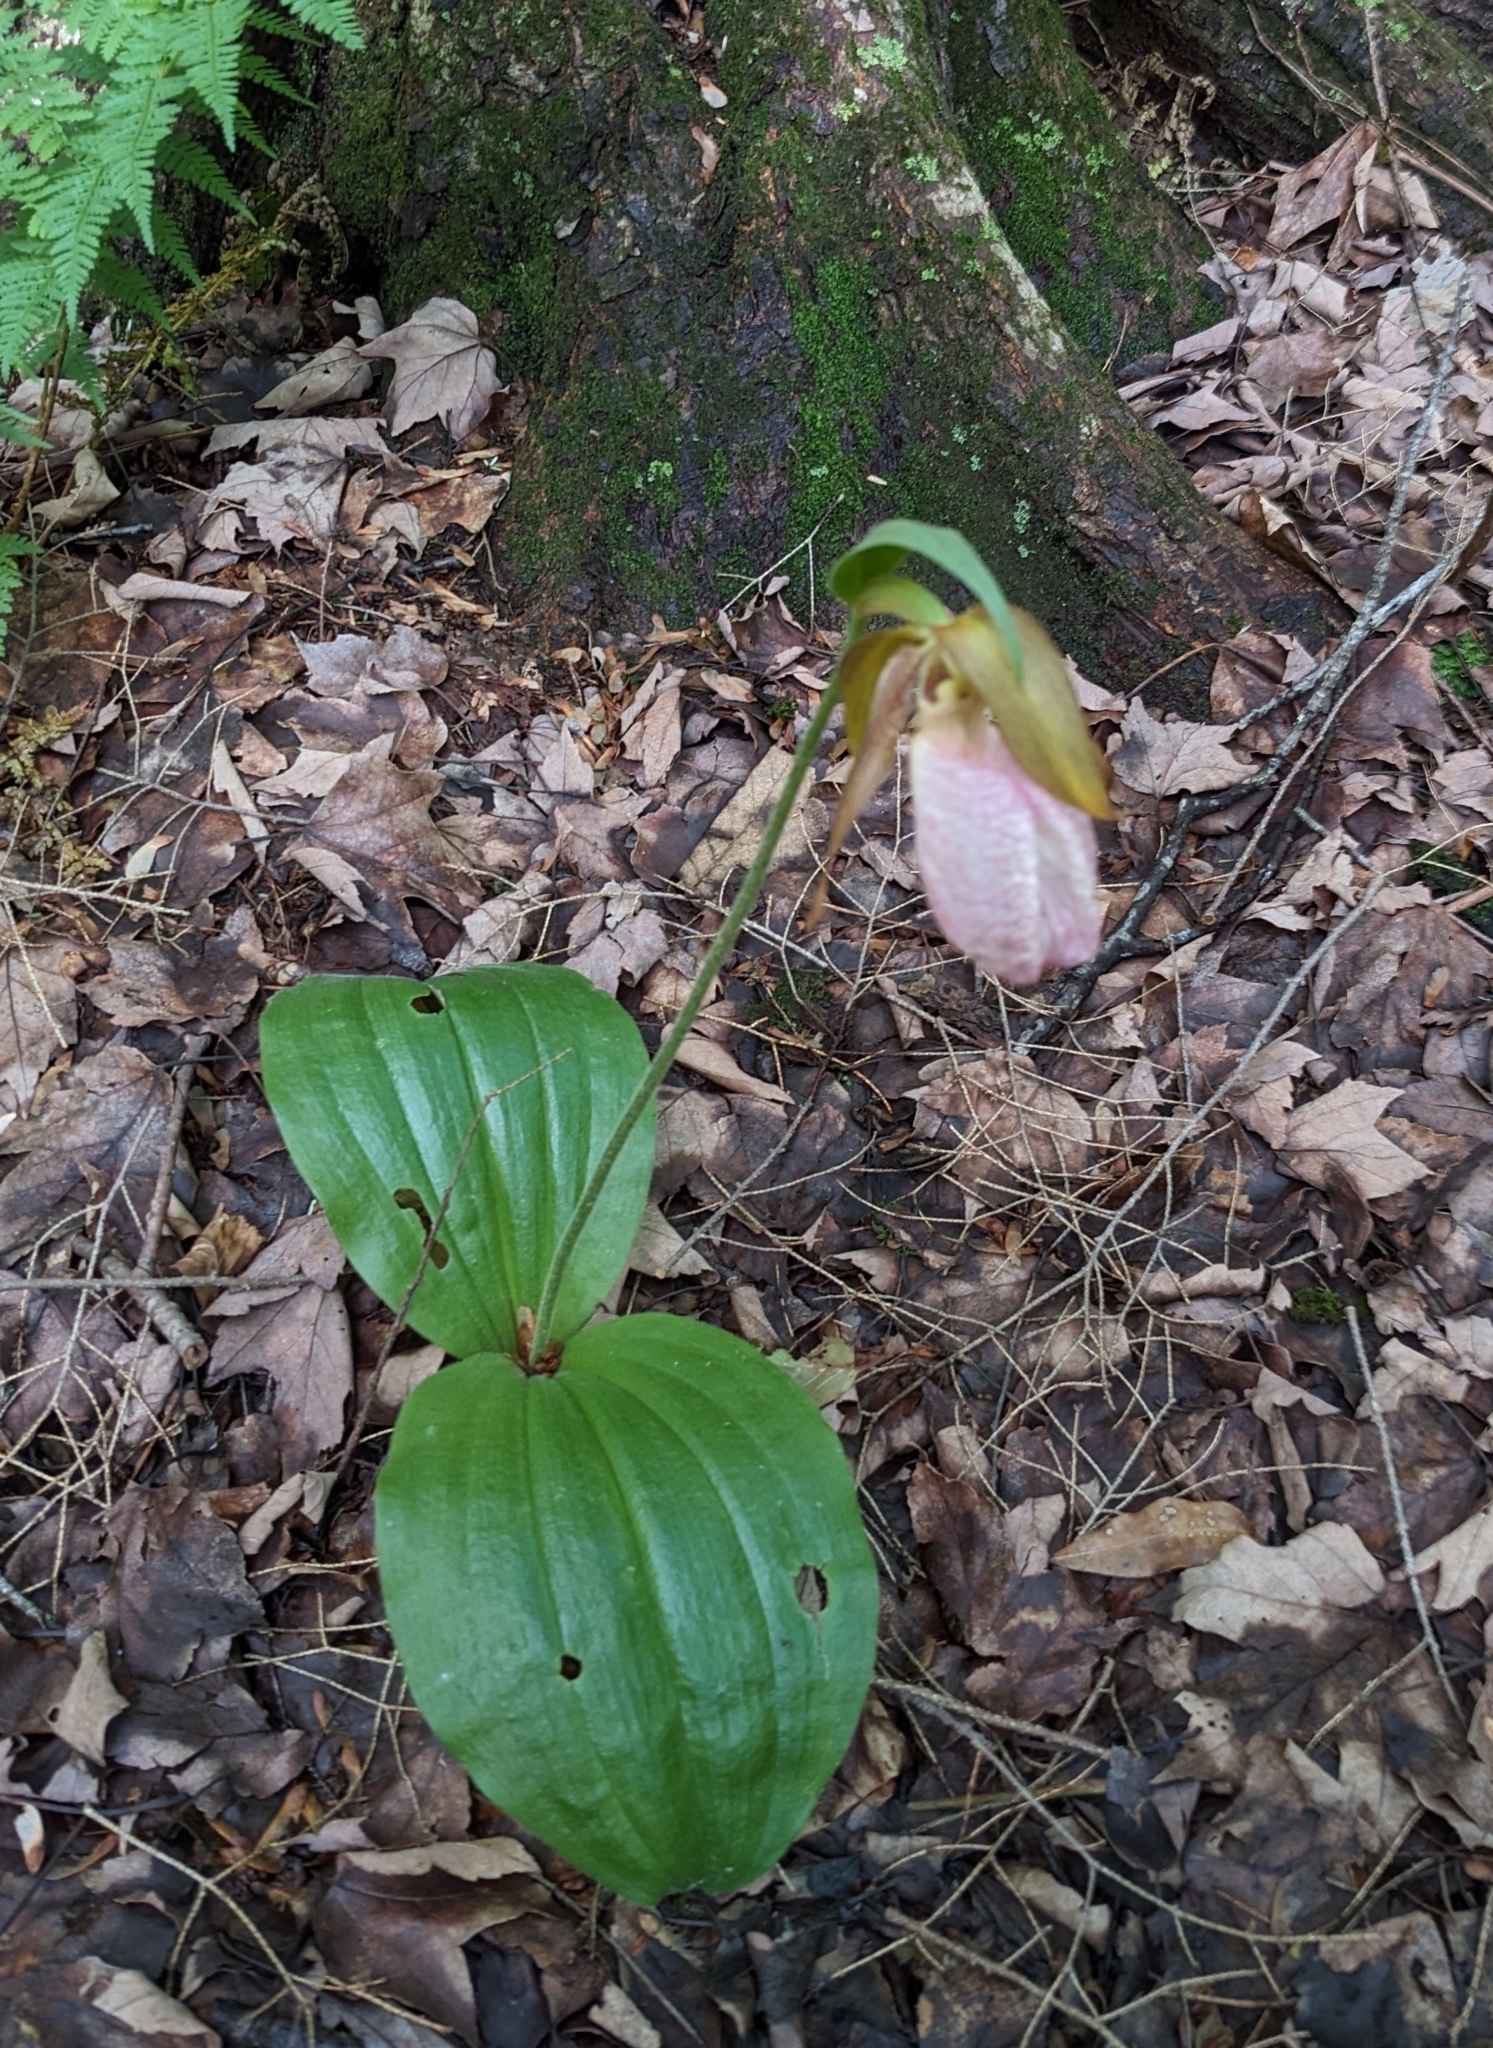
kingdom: Plantae
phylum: Tracheophyta
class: Liliopsida
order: Asparagales
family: Orchidaceae
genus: Cypripedium
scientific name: Cypripedium acaule
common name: Pink lady's-slipper
